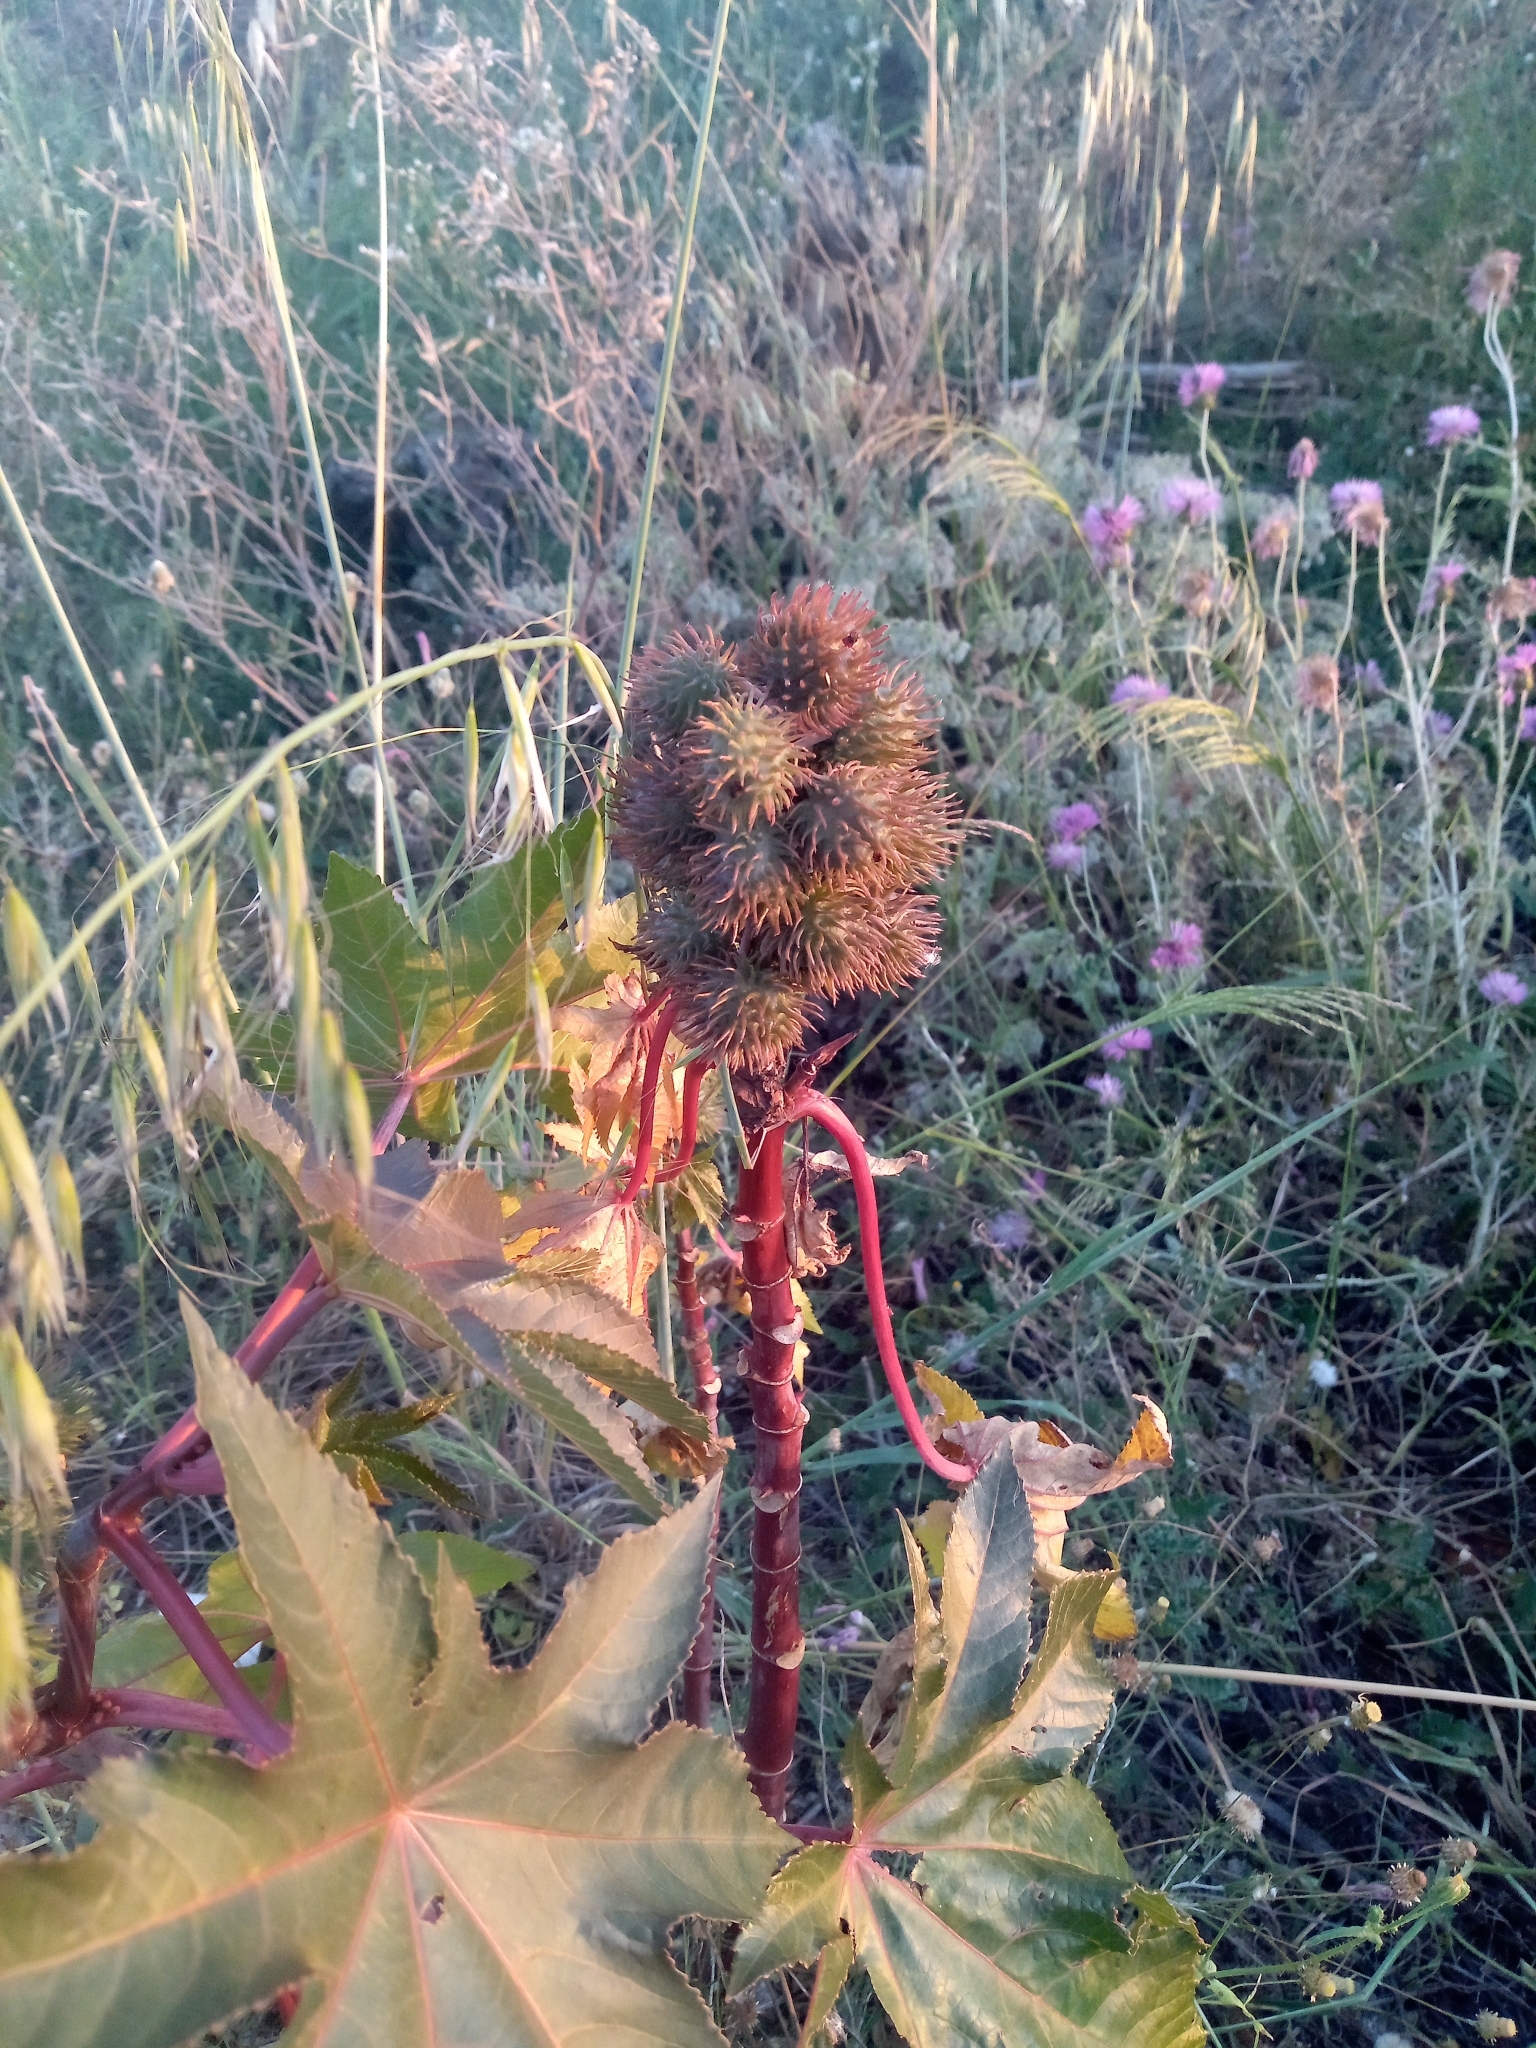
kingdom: Plantae
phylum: Tracheophyta
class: Magnoliopsida
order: Malpighiales
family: Euphorbiaceae
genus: Ricinus
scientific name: Ricinus communis
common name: Castor-oil-plant
